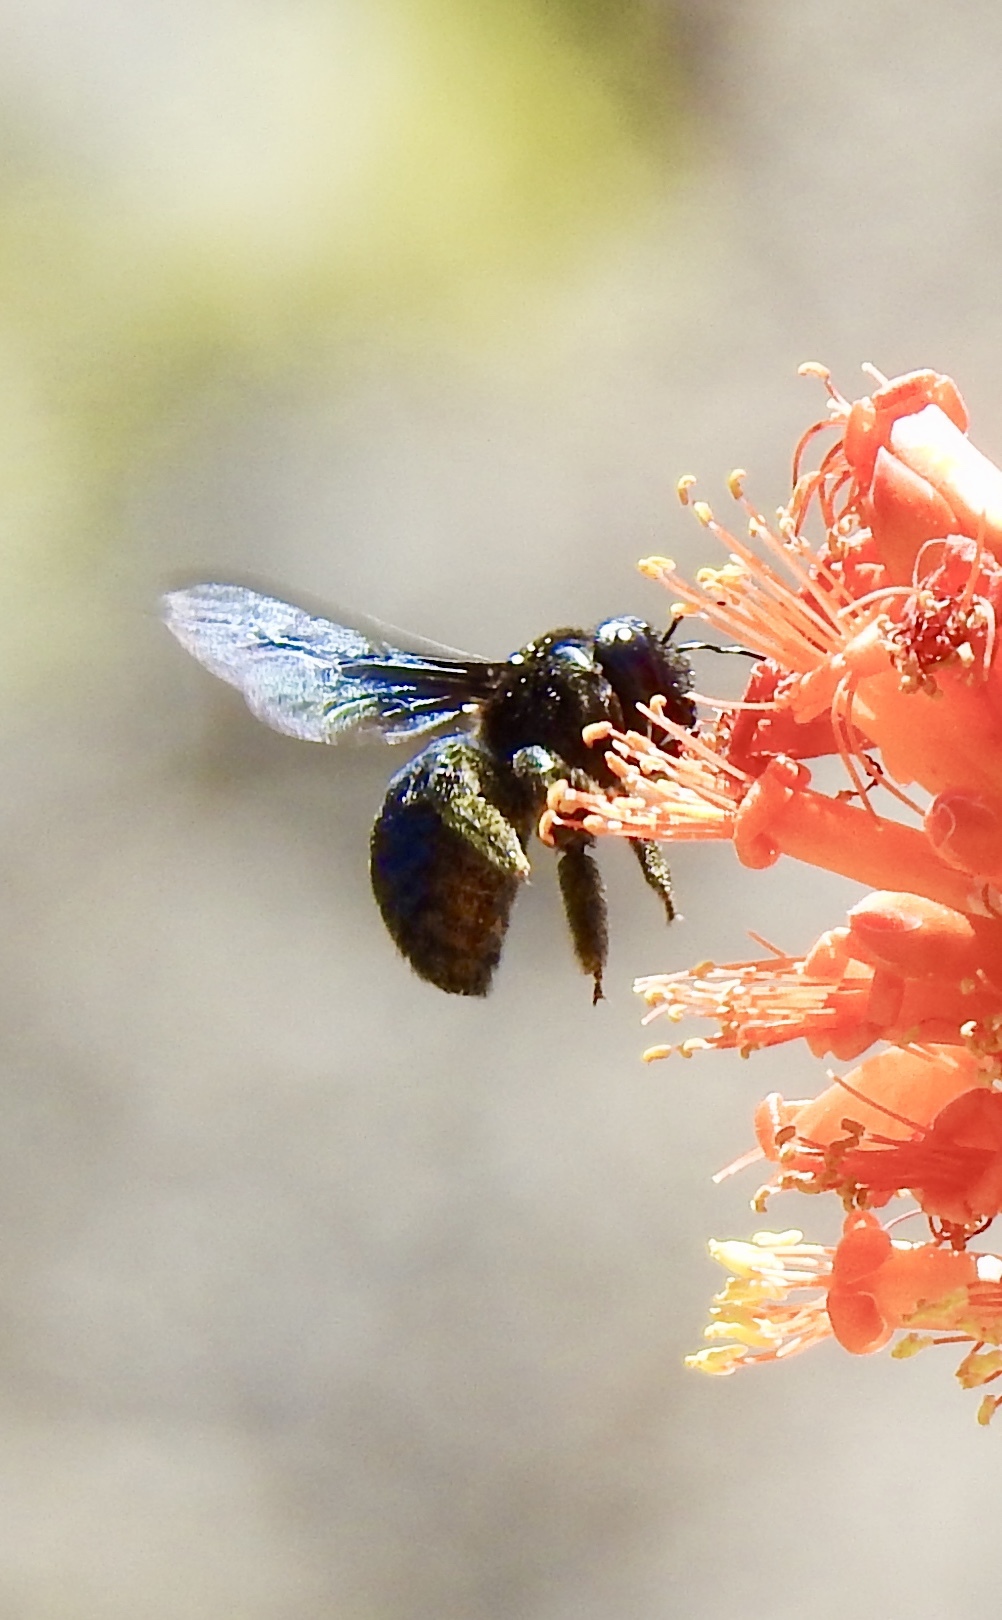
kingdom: Animalia
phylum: Arthropoda
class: Insecta
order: Hymenoptera
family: Apidae
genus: Xylocopa
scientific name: Xylocopa californica
